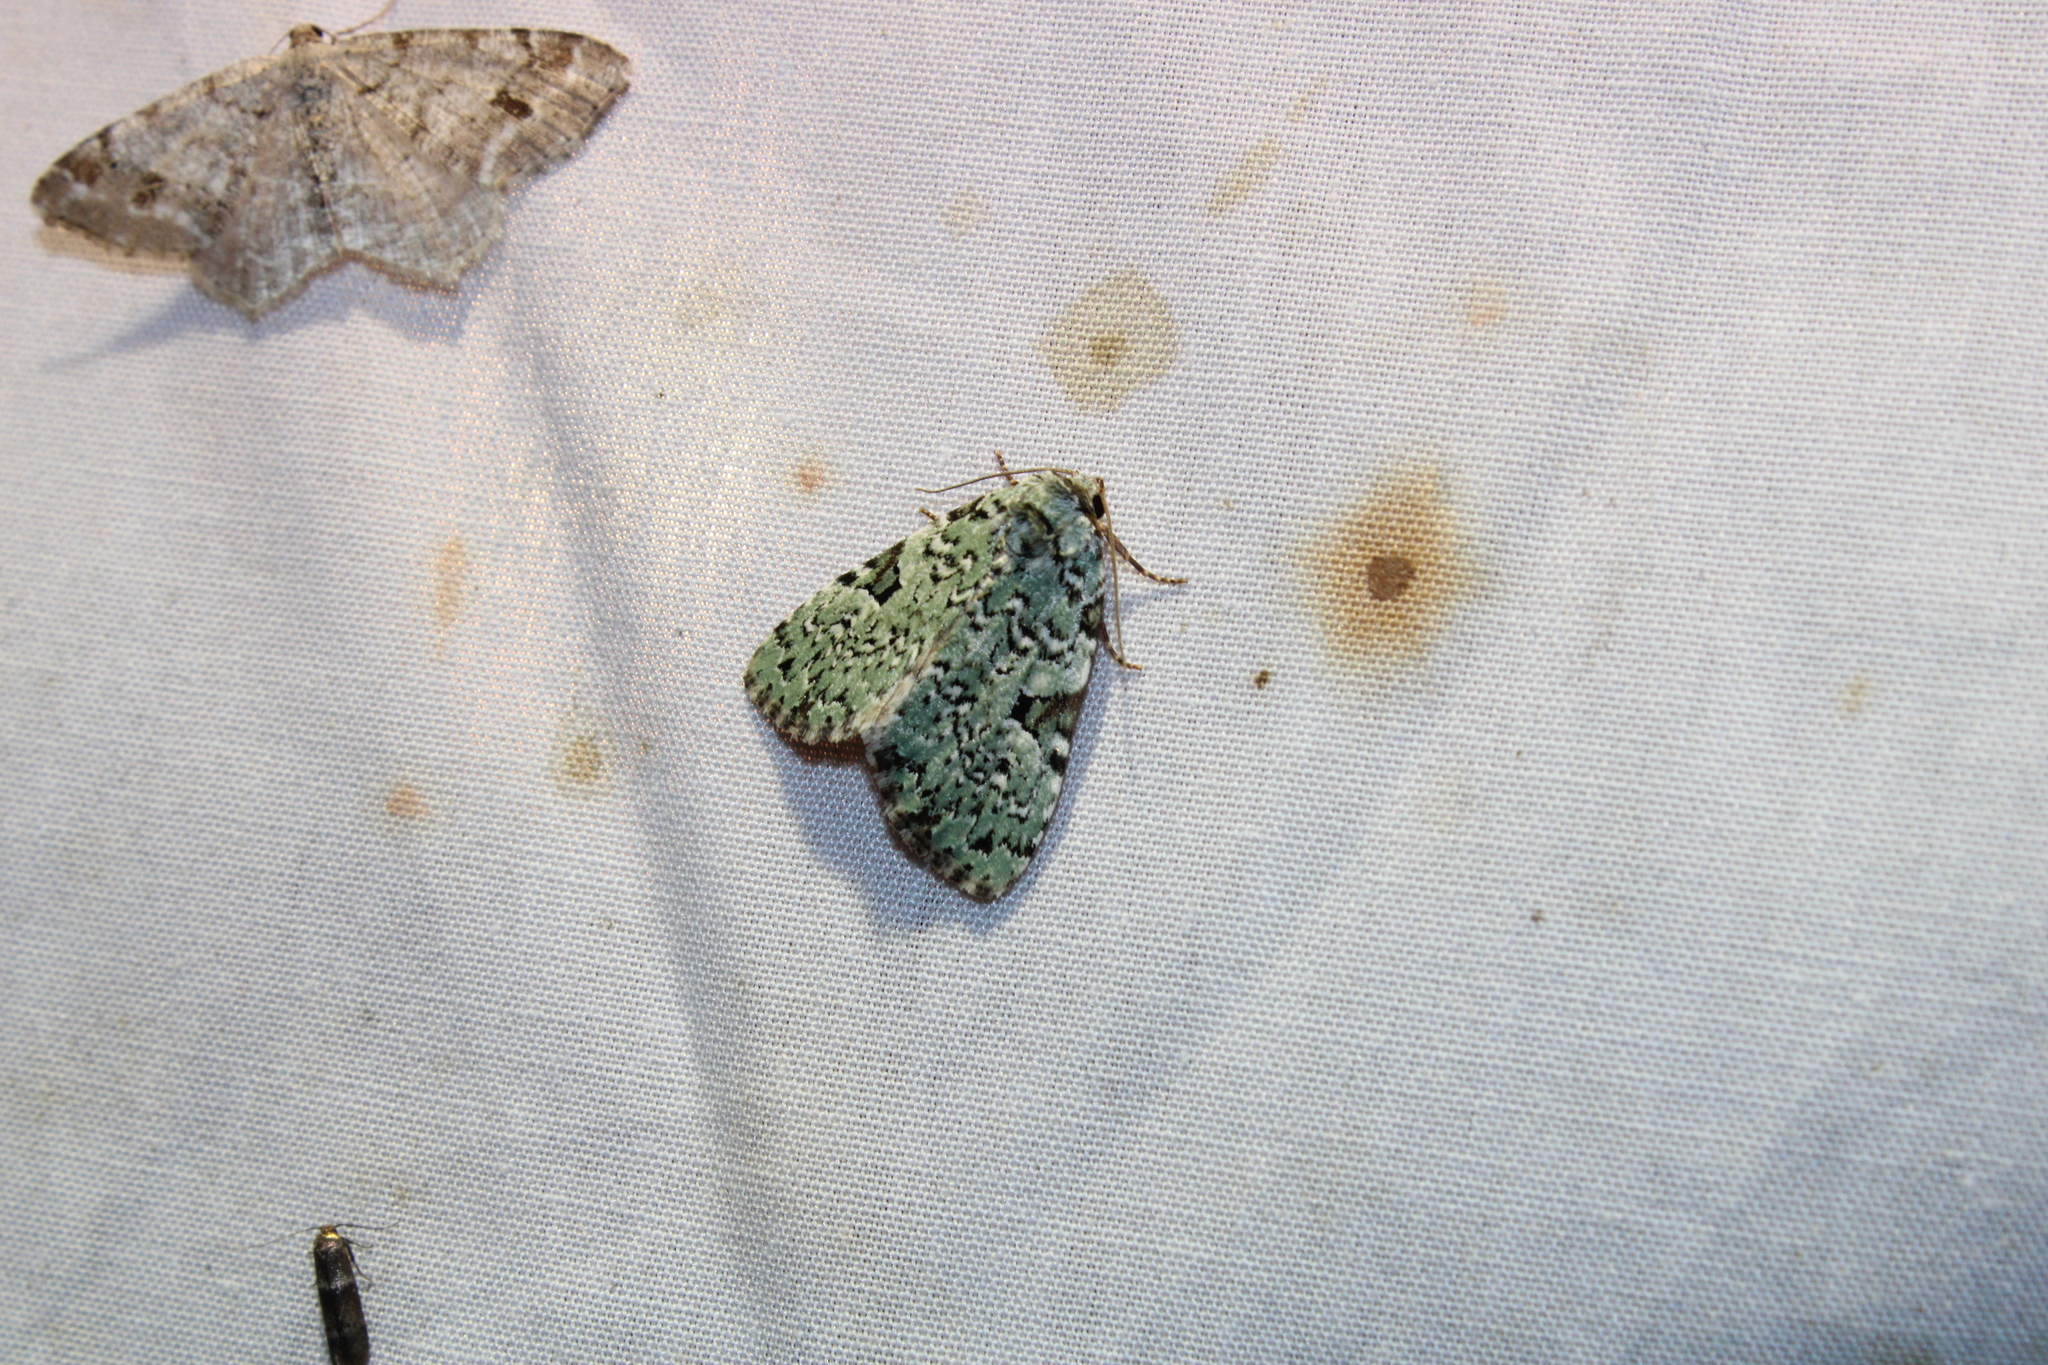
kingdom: Animalia
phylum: Arthropoda
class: Insecta
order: Lepidoptera
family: Noctuidae
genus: Leuconycta
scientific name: Leuconycta diphteroides
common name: Green leuconycta moth
